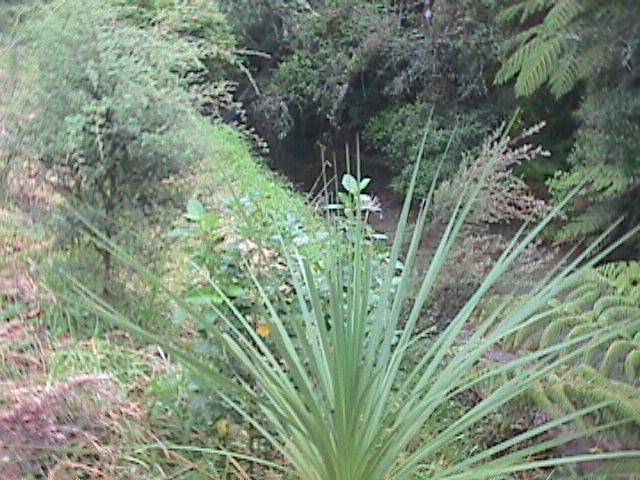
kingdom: Plantae
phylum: Tracheophyta
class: Liliopsida
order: Asparagales
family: Asparagaceae
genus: Cordyline
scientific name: Cordyline australis
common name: Cabbage-palm
